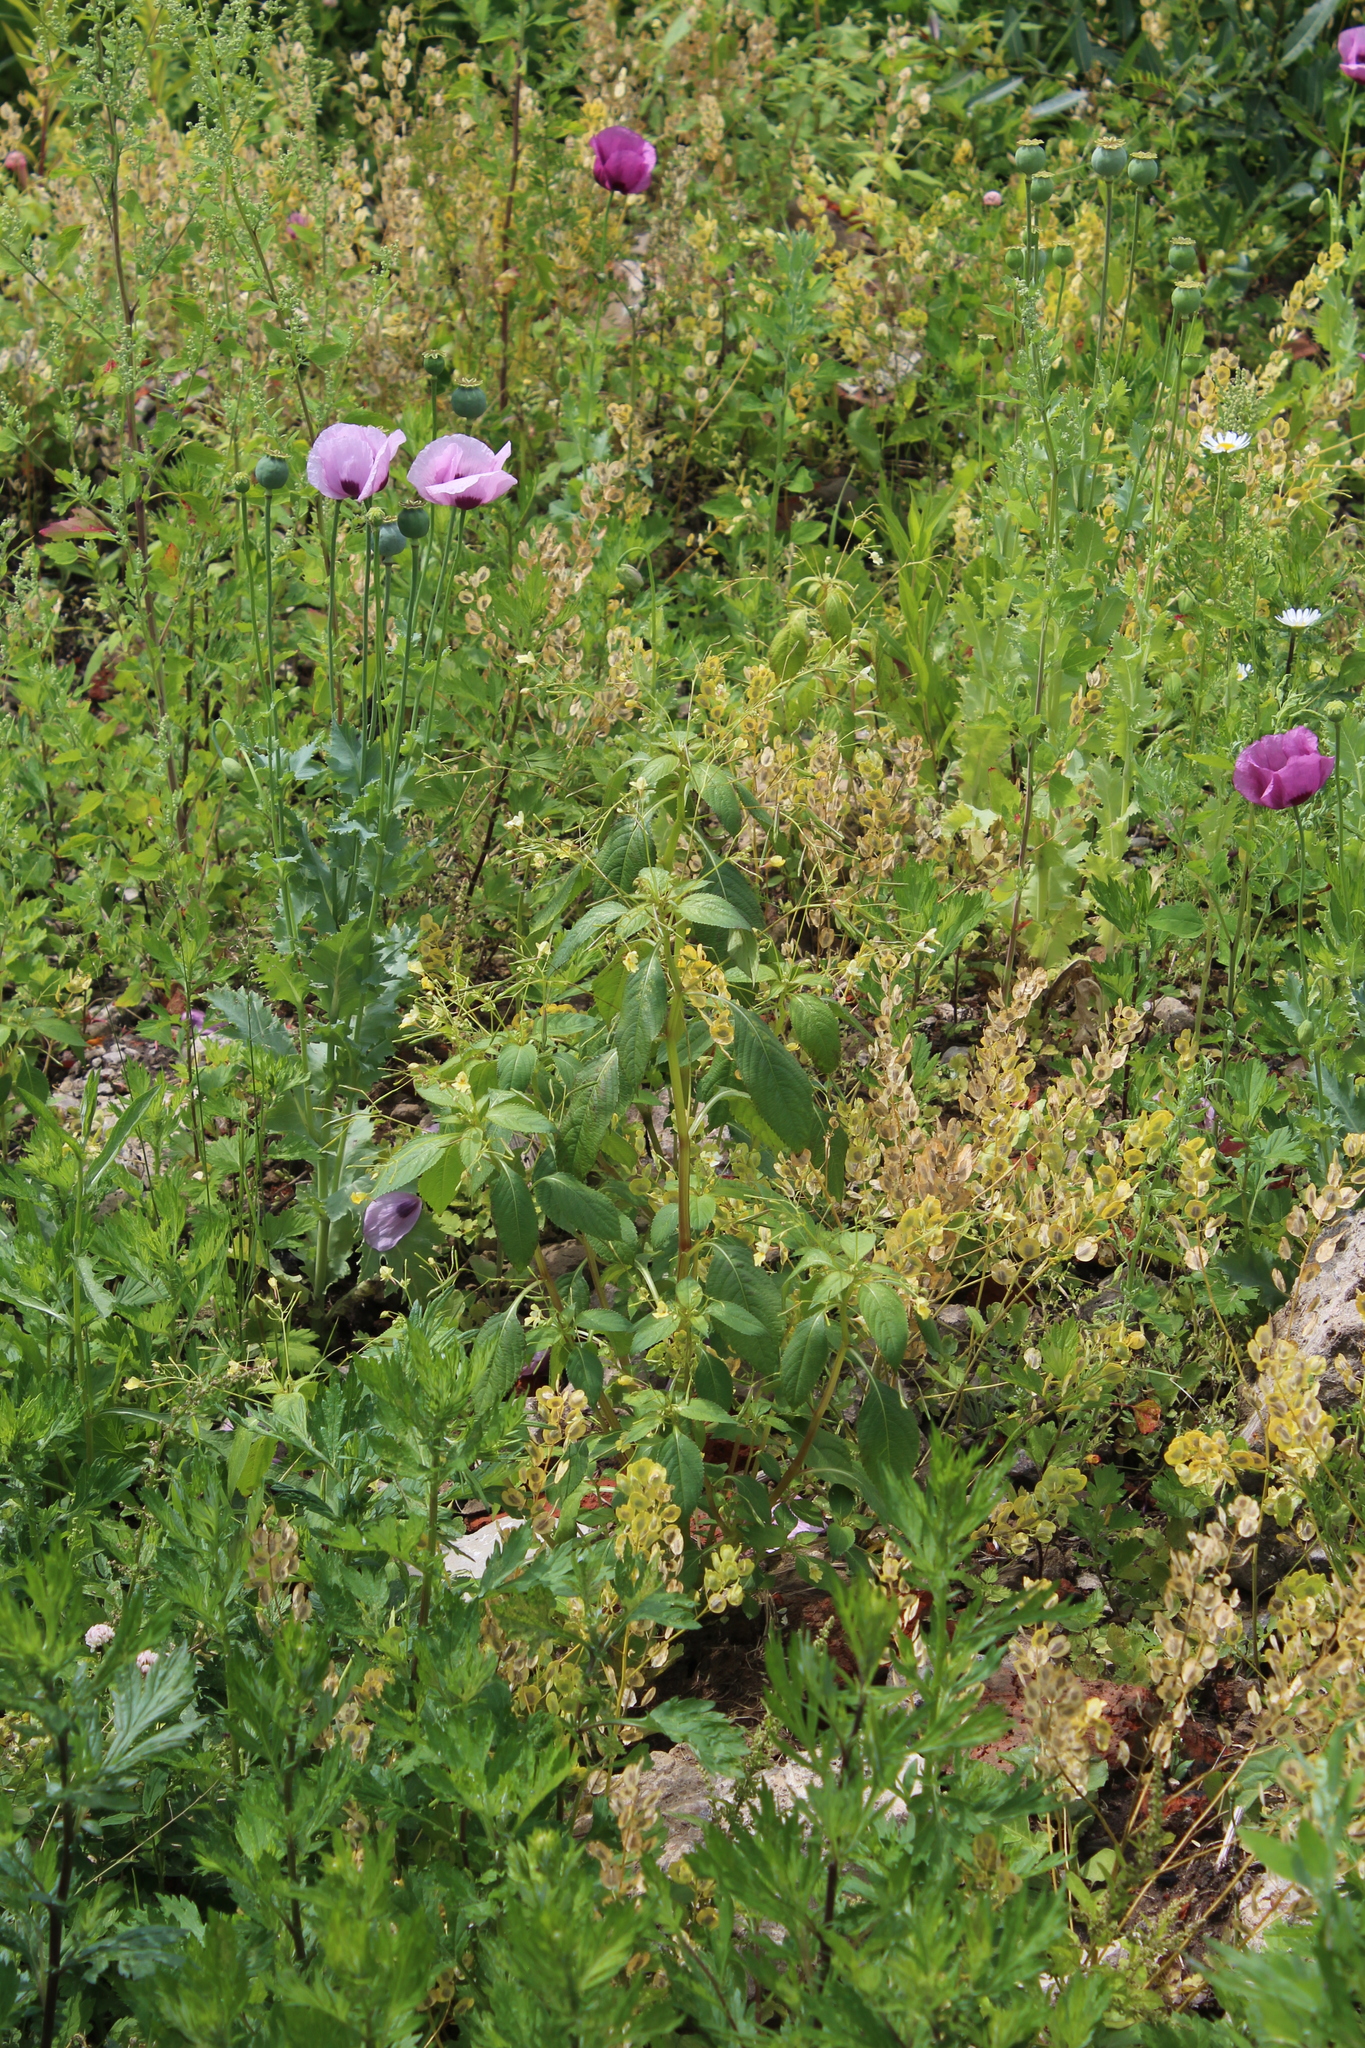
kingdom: Plantae
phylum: Tracheophyta
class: Magnoliopsida
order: Ericales
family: Balsaminaceae
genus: Impatiens
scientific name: Impatiens parviflora
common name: Small balsam
